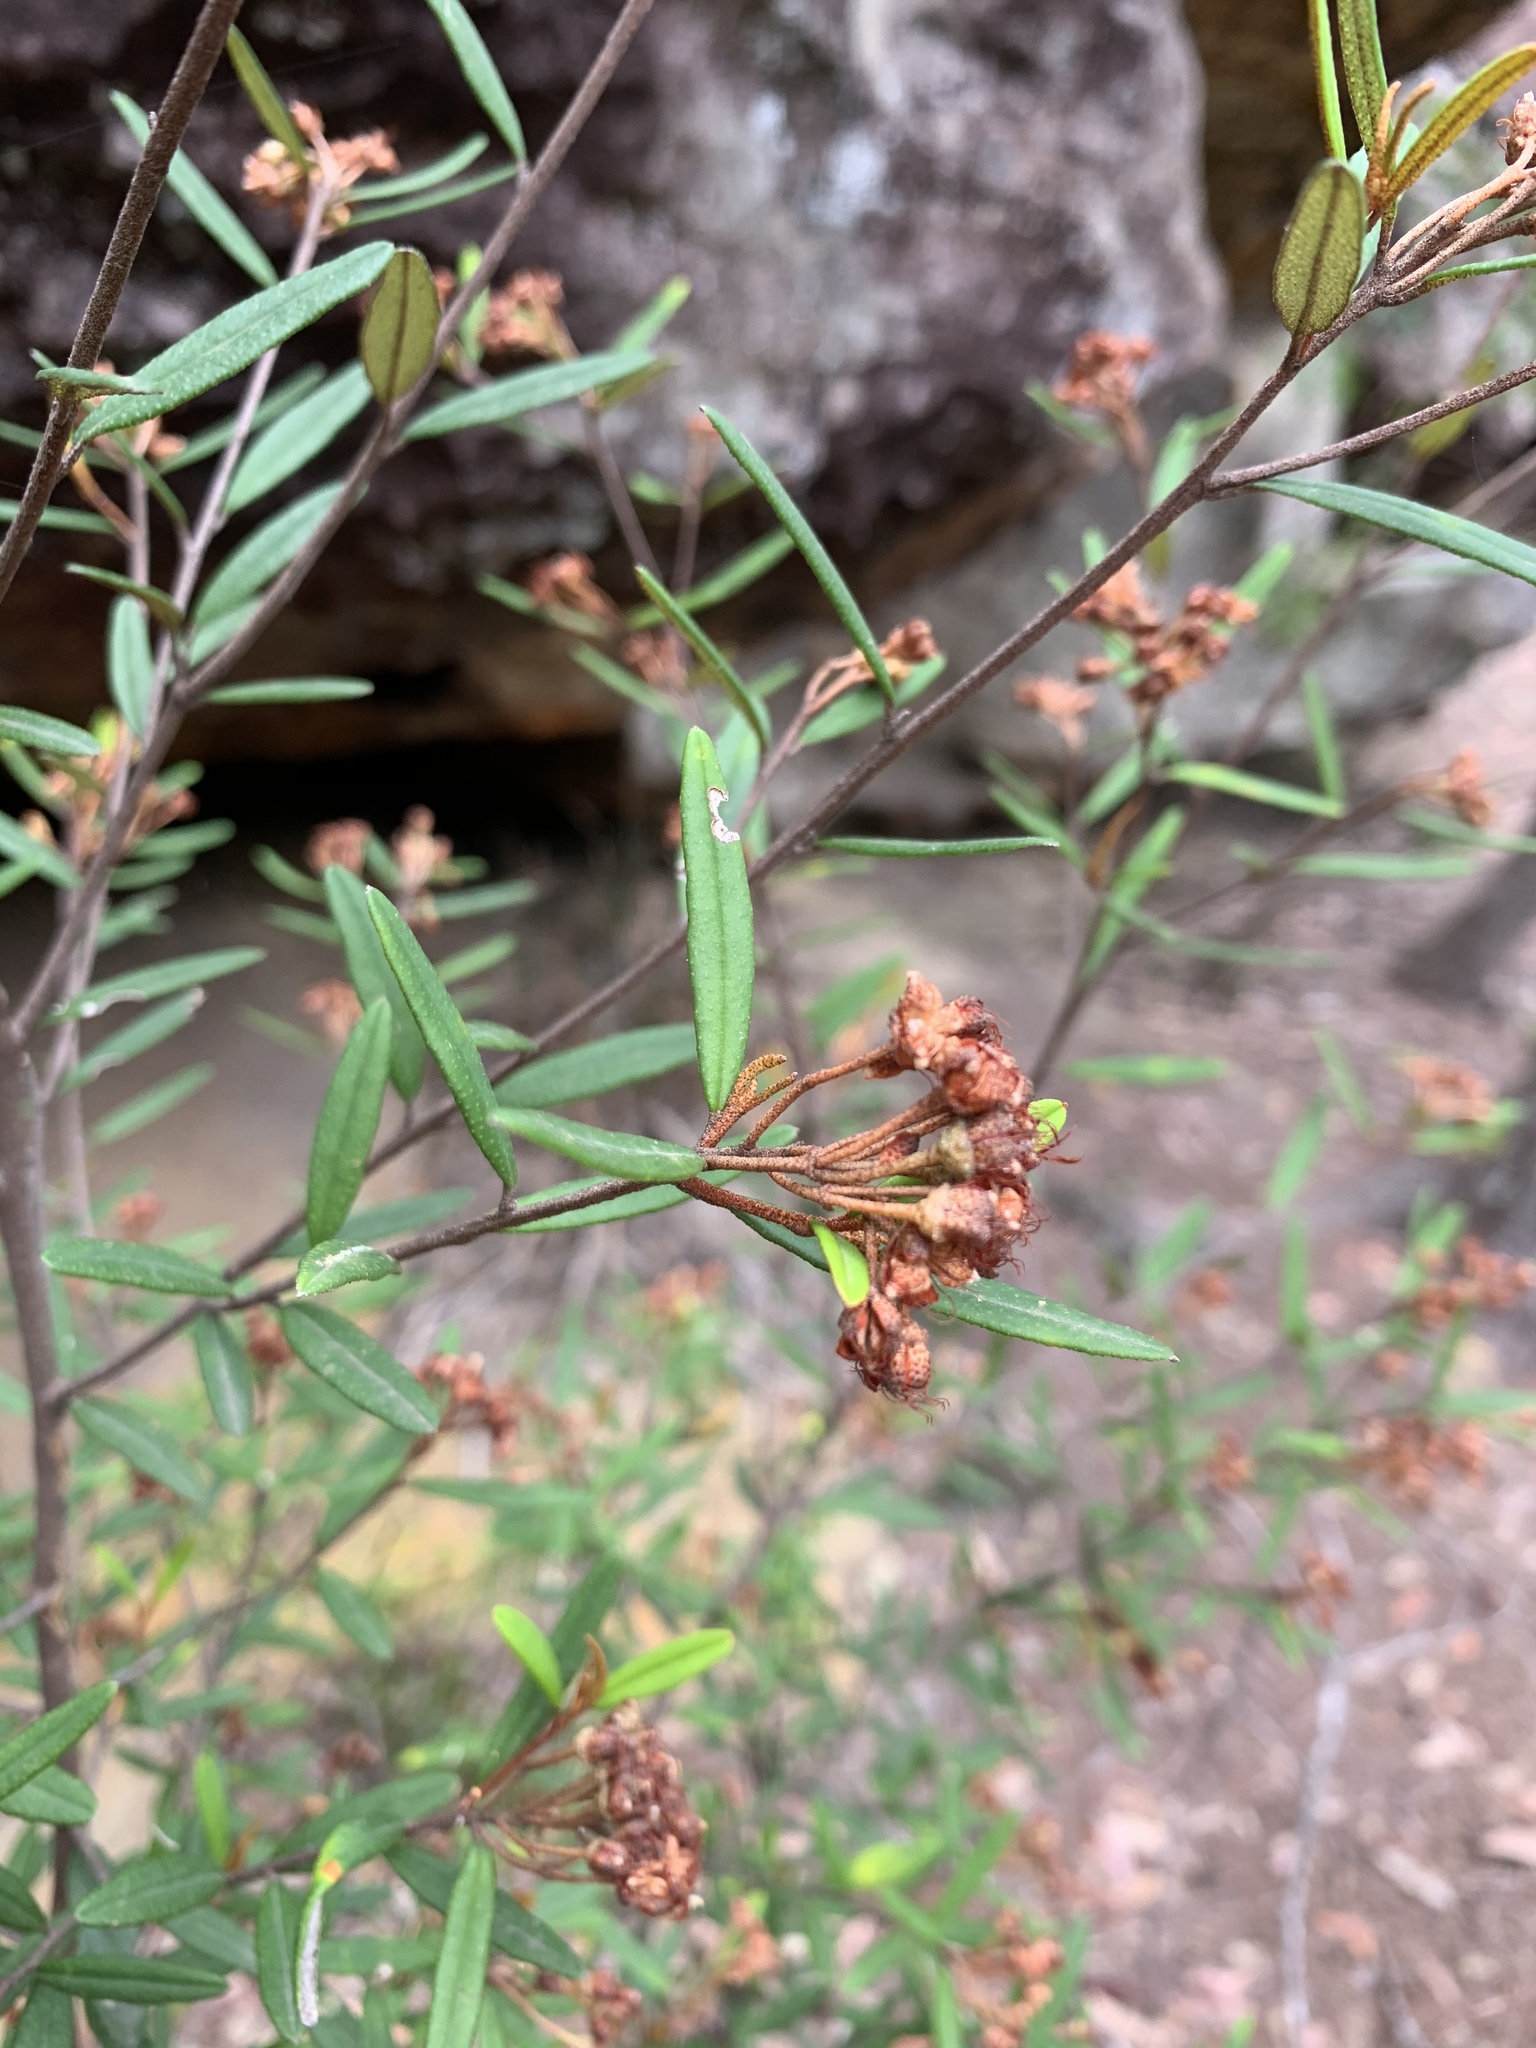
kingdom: Plantae
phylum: Tracheophyta
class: Magnoliopsida
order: Sapindales
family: Rutaceae
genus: Phebalium
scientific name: Phebalium squamulosum
